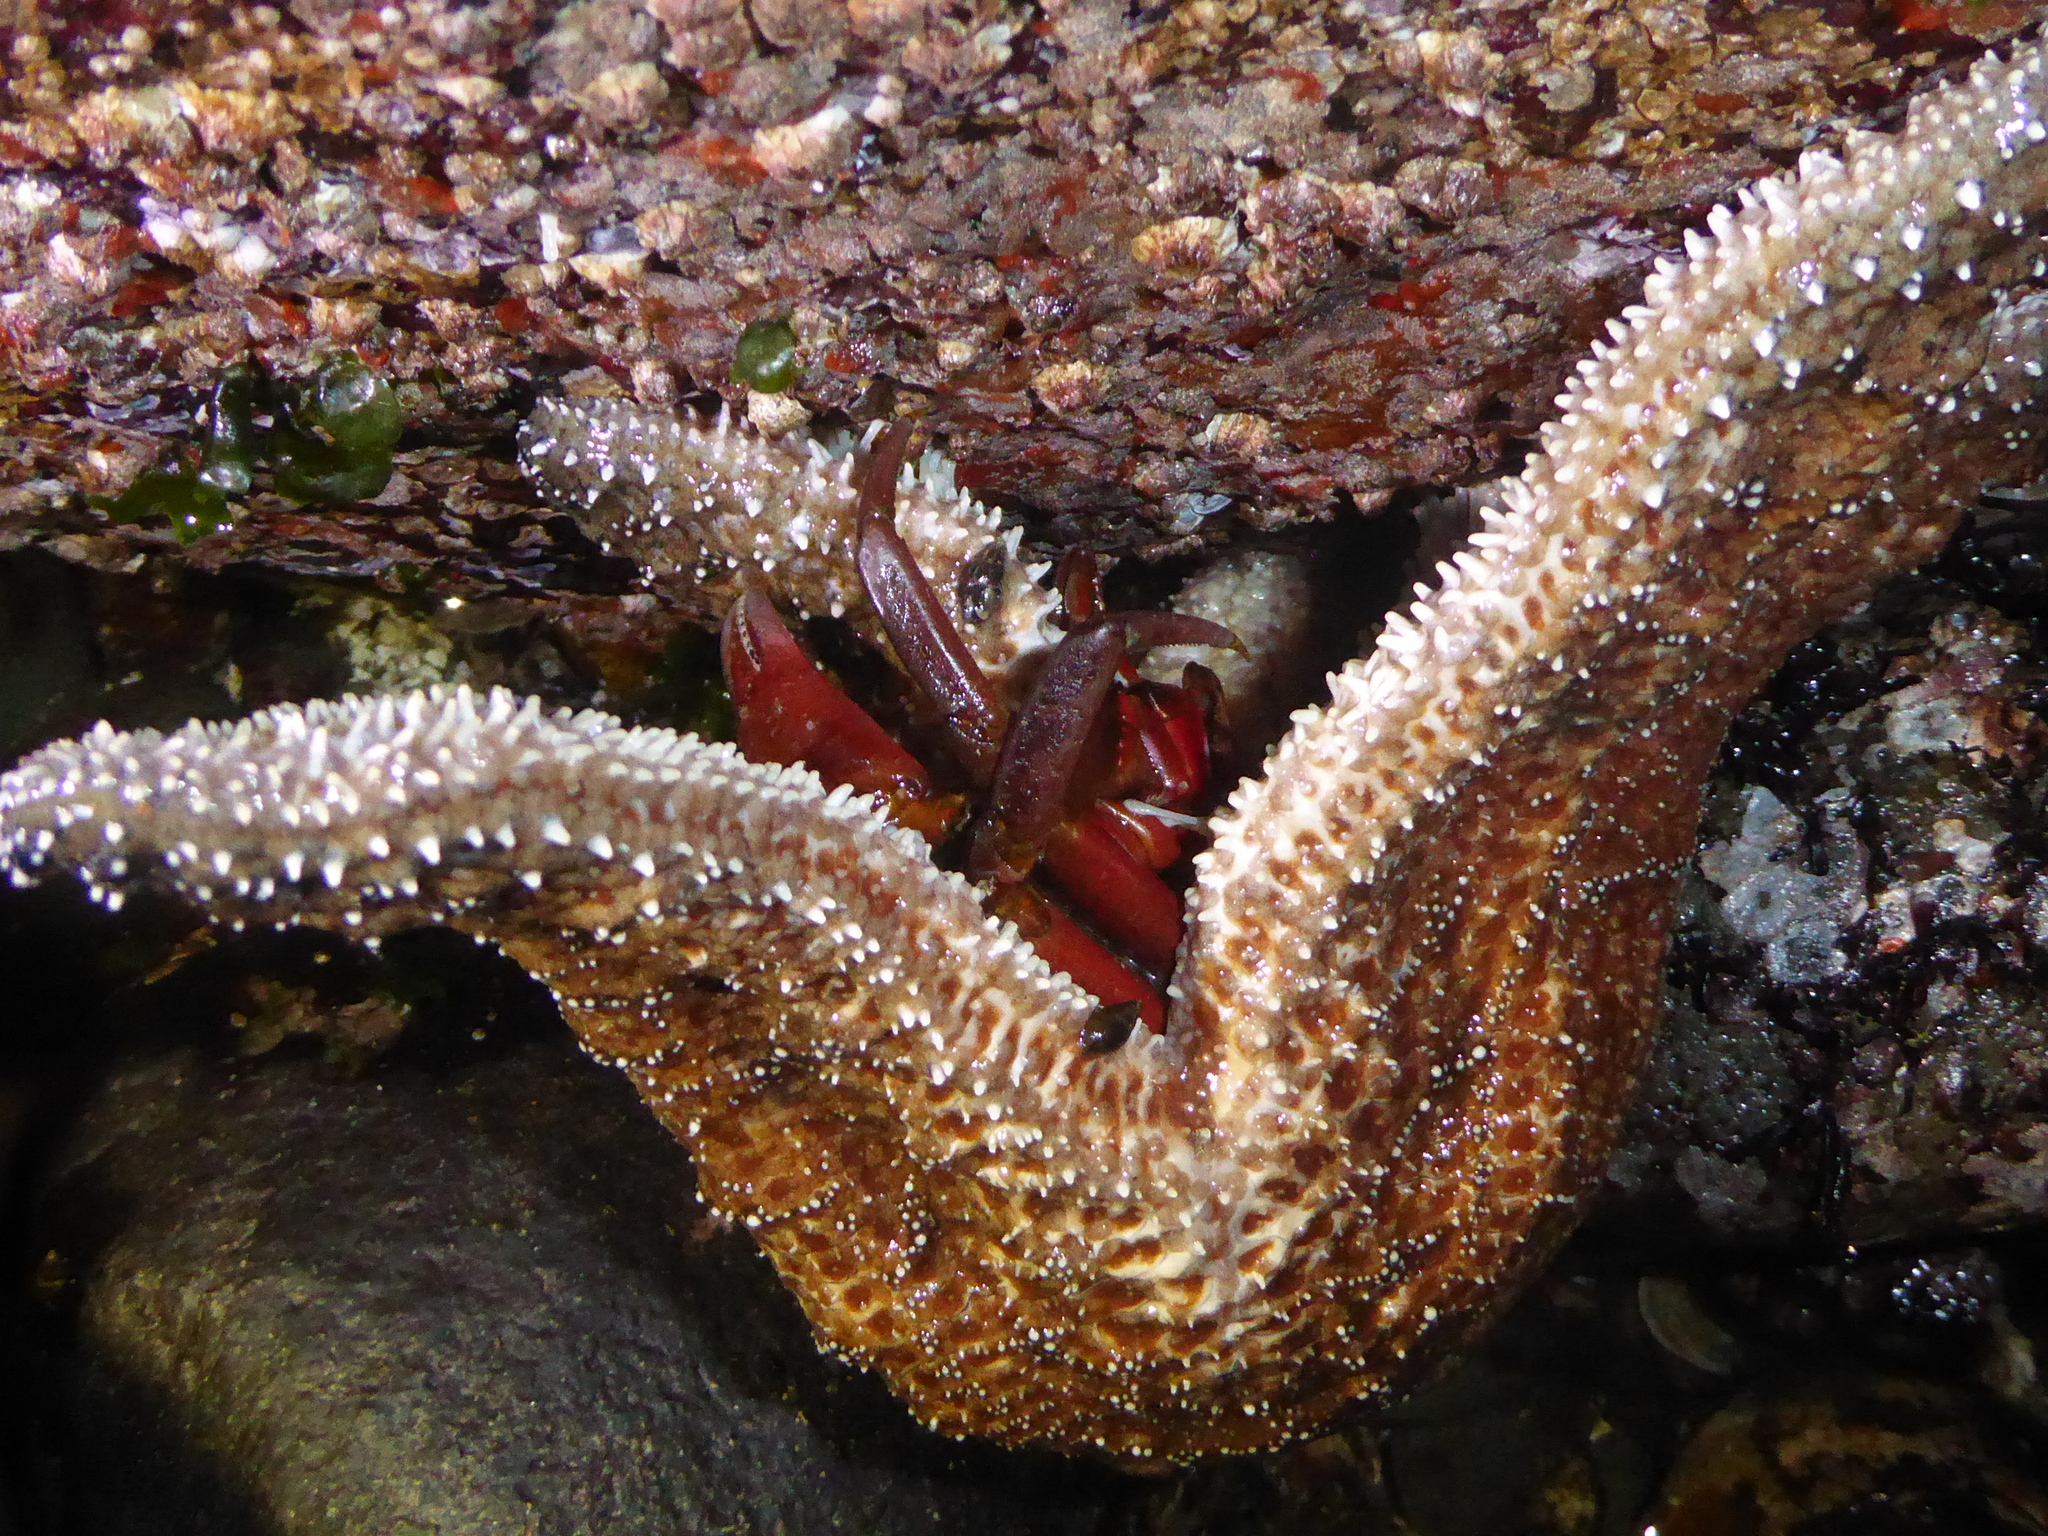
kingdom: Animalia
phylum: Echinodermata
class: Asteroidea
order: Forcipulatida
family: Asteriidae
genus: Pisaster
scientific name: Pisaster ochraceus
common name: Ochre stars
